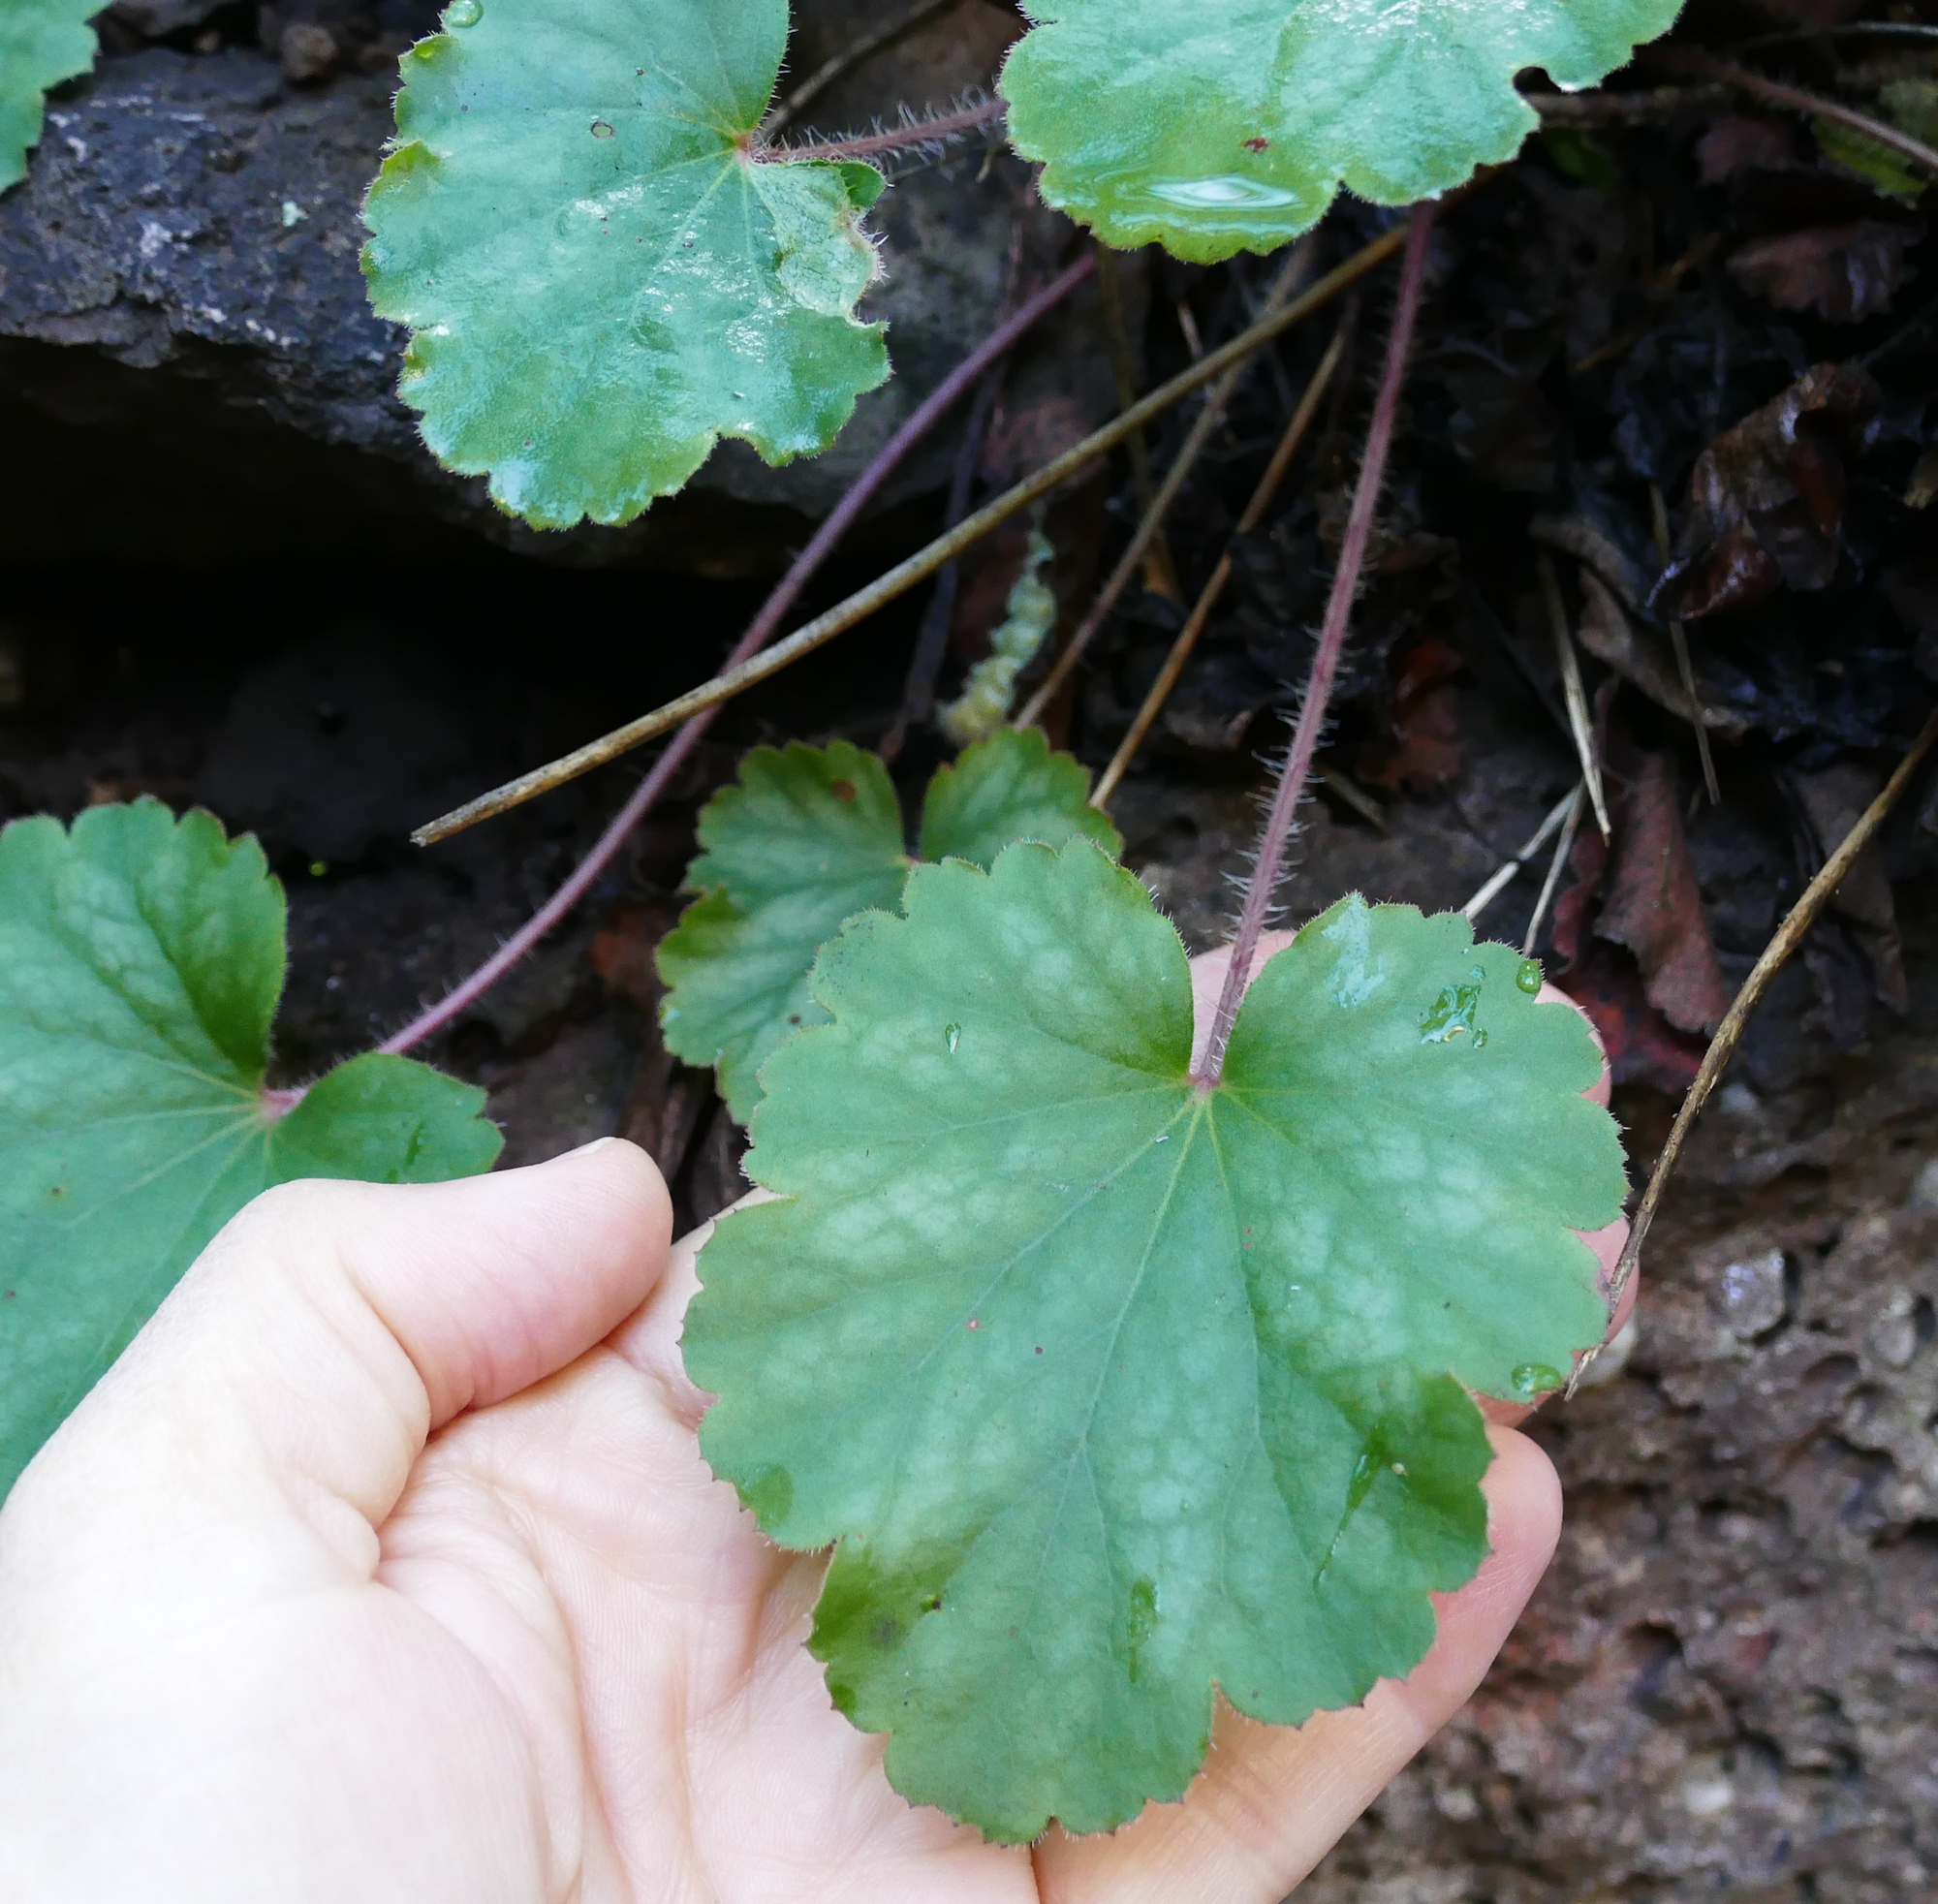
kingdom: Plantae
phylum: Tracheophyta
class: Magnoliopsida
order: Saxifragales
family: Saxifragaceae
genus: Heuchera
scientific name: Heuchera novomexicana
